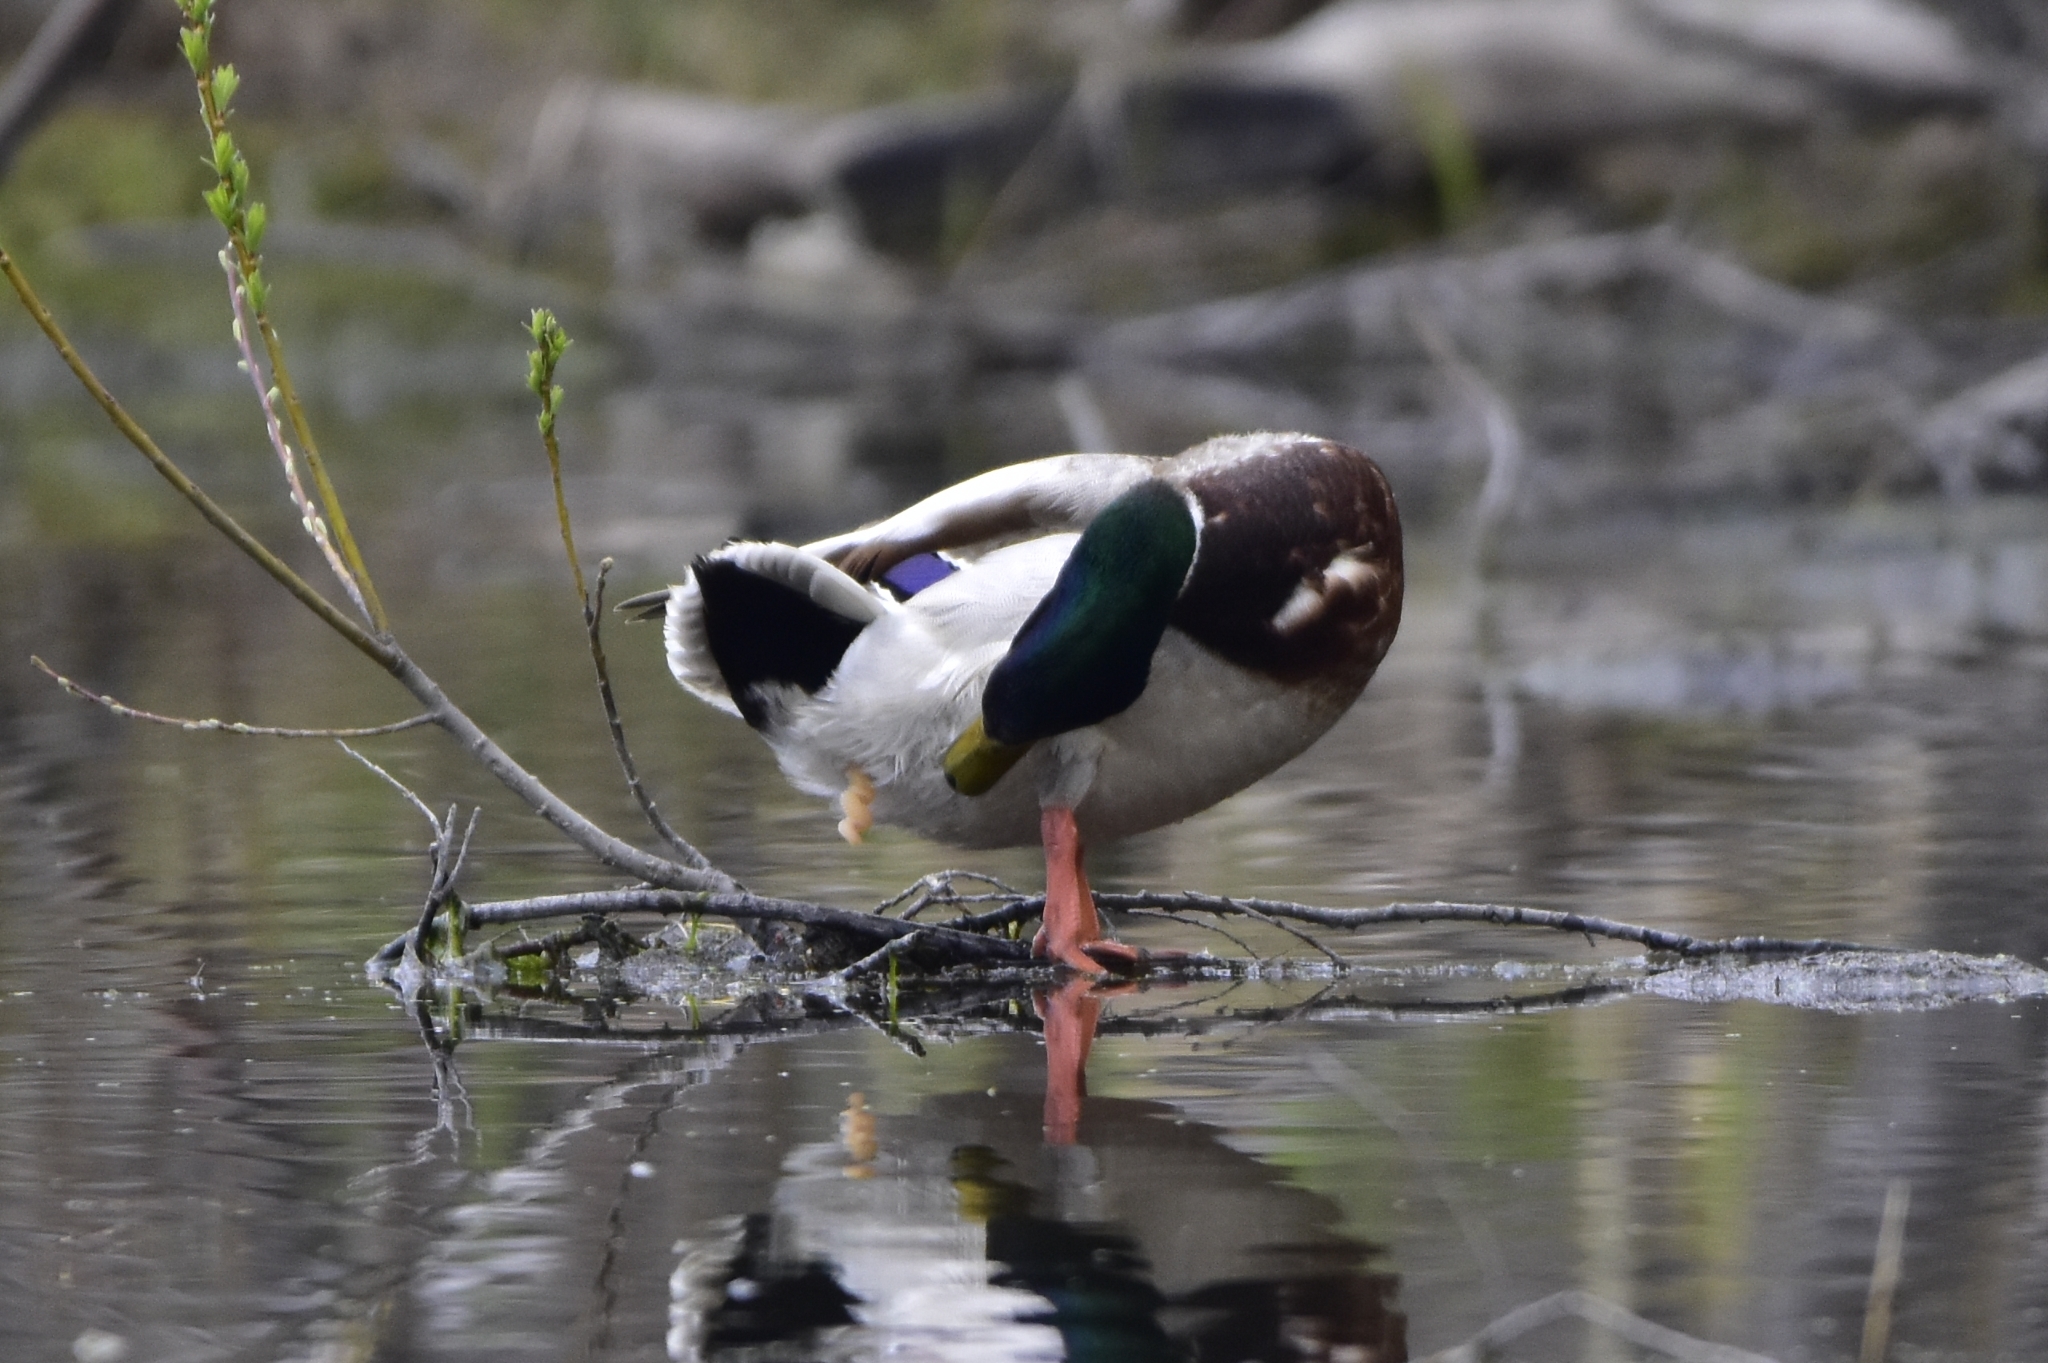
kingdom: Animalia
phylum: Chordata
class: Aves
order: Anseriformes
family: Anatidae
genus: Anas
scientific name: Anas platyrhynchos
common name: Mallard
